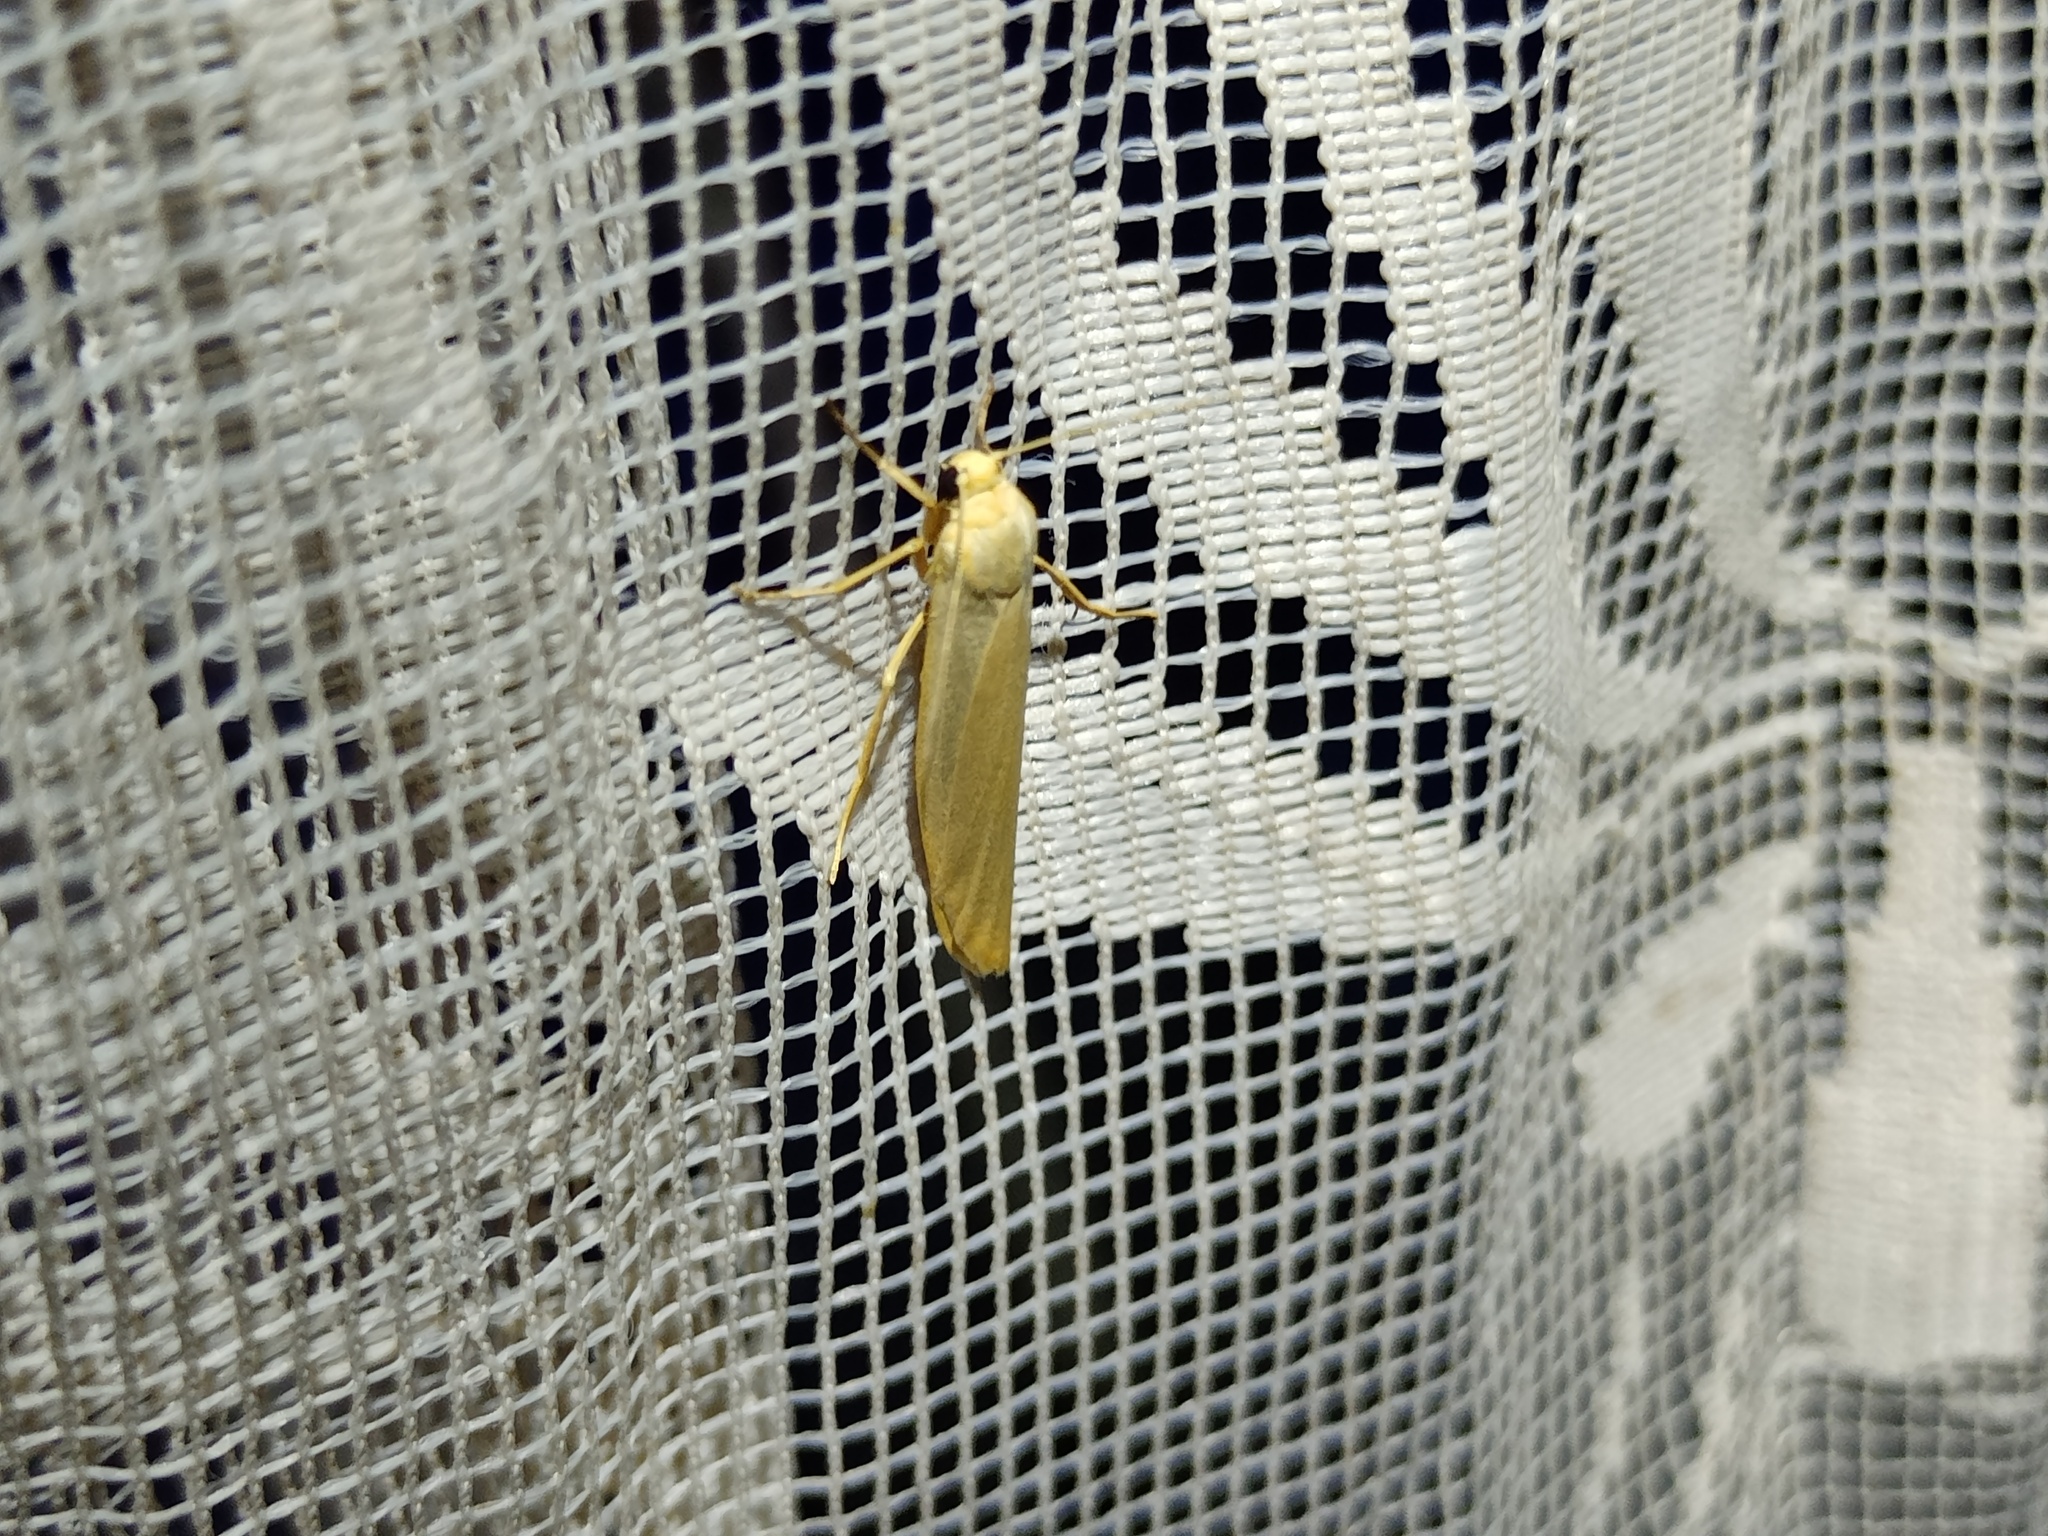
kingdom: Animalia
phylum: Arthropoda
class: Insecta
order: Lepidoptera
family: Erebidae
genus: Manulea
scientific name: Manulea palliatella
